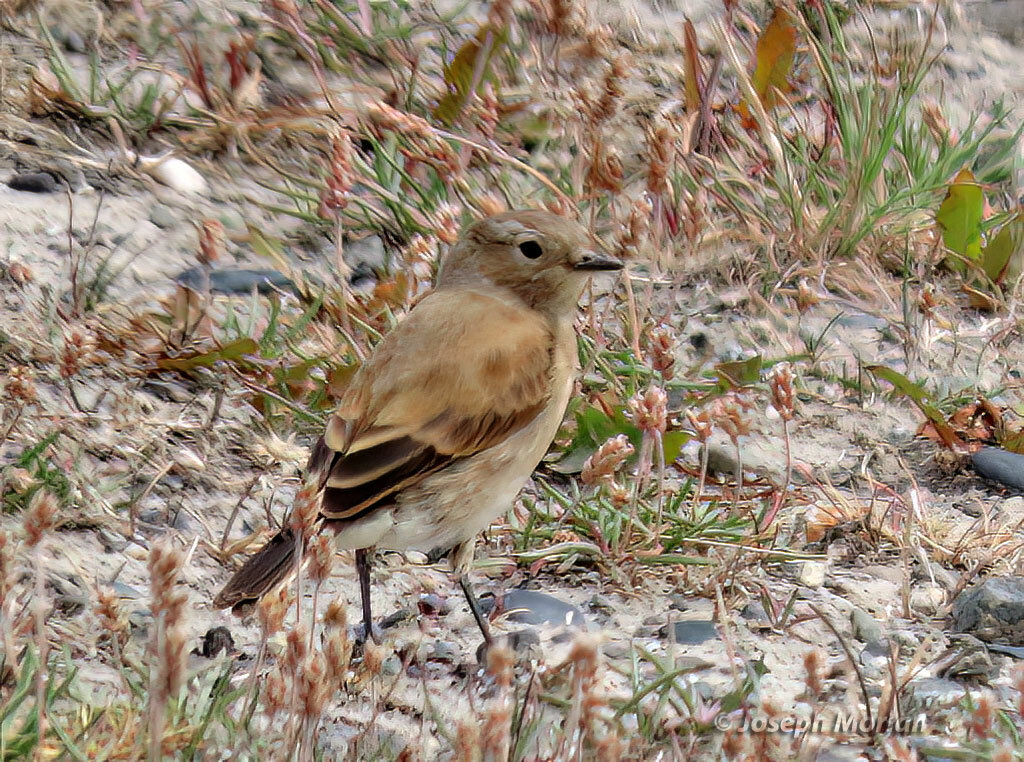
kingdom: Animalia
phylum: Chordata
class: Aves
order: Passeriformes
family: Tyrannidae
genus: Lessonia
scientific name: Lessonia rufa
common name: Austral negrito
